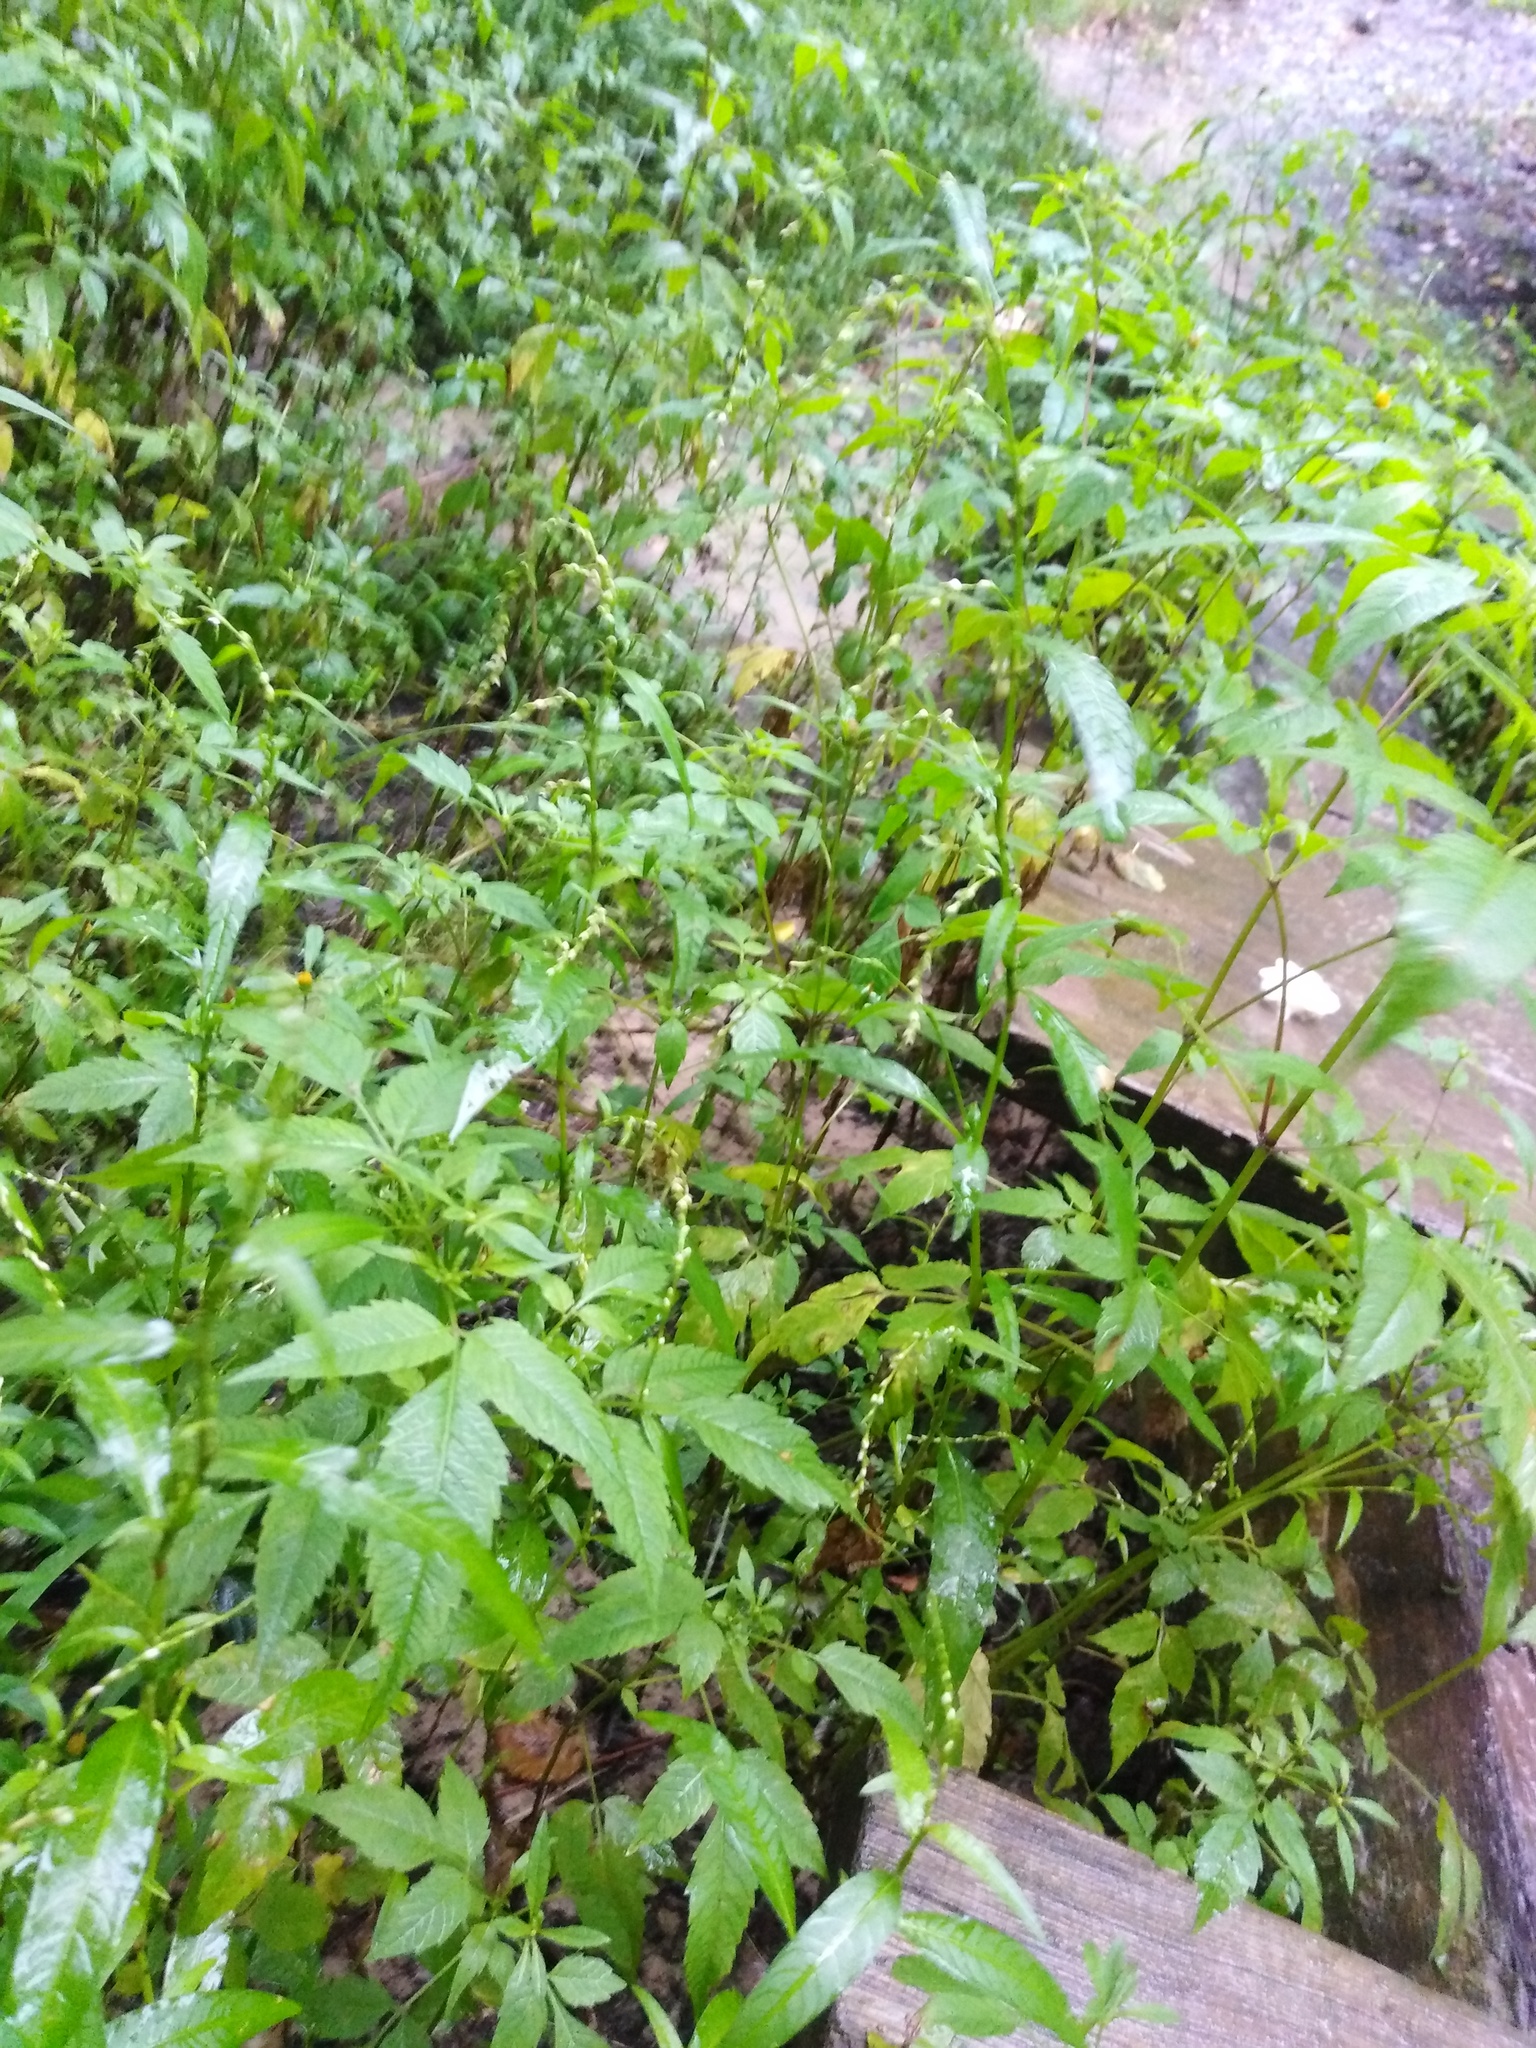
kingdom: Plantae
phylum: Tracheophyta
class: Magnoliopsida
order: Caryophyllales
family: Polygonaceae
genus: Persicaria
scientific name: Persicaria hydropiper
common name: Water-pepper
